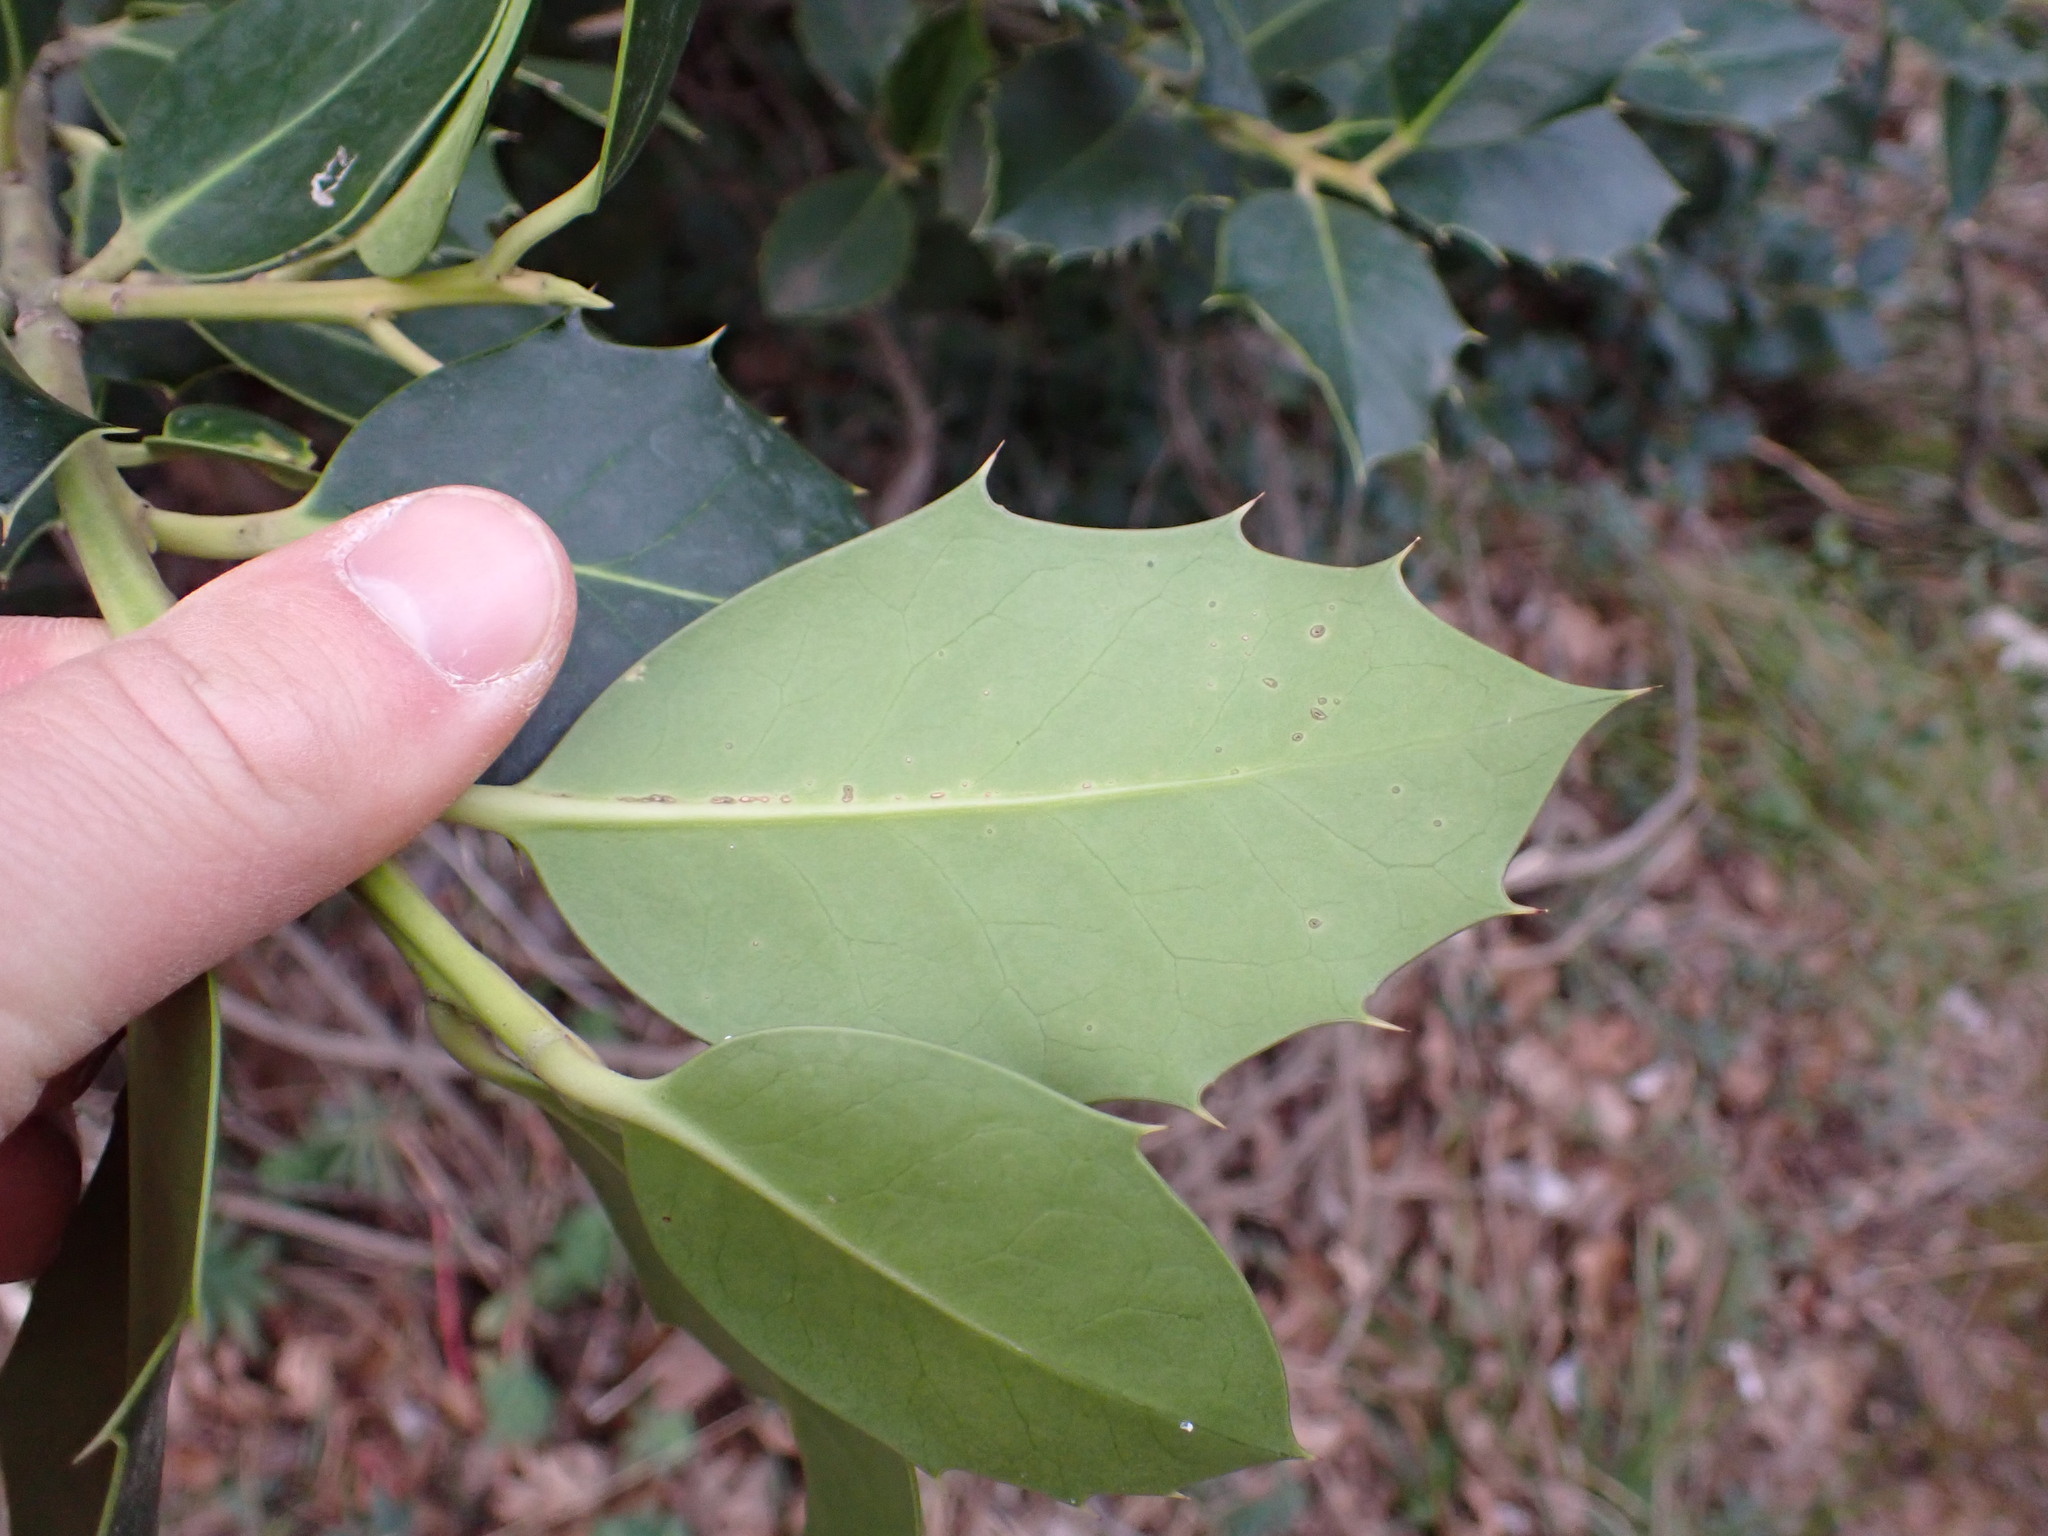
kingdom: Plantae
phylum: Tracheophyta
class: Magnoliopsida
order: Aquifoliales
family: Aquifoliaceae
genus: Ilex
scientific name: Ilex aquifolium
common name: English holly
